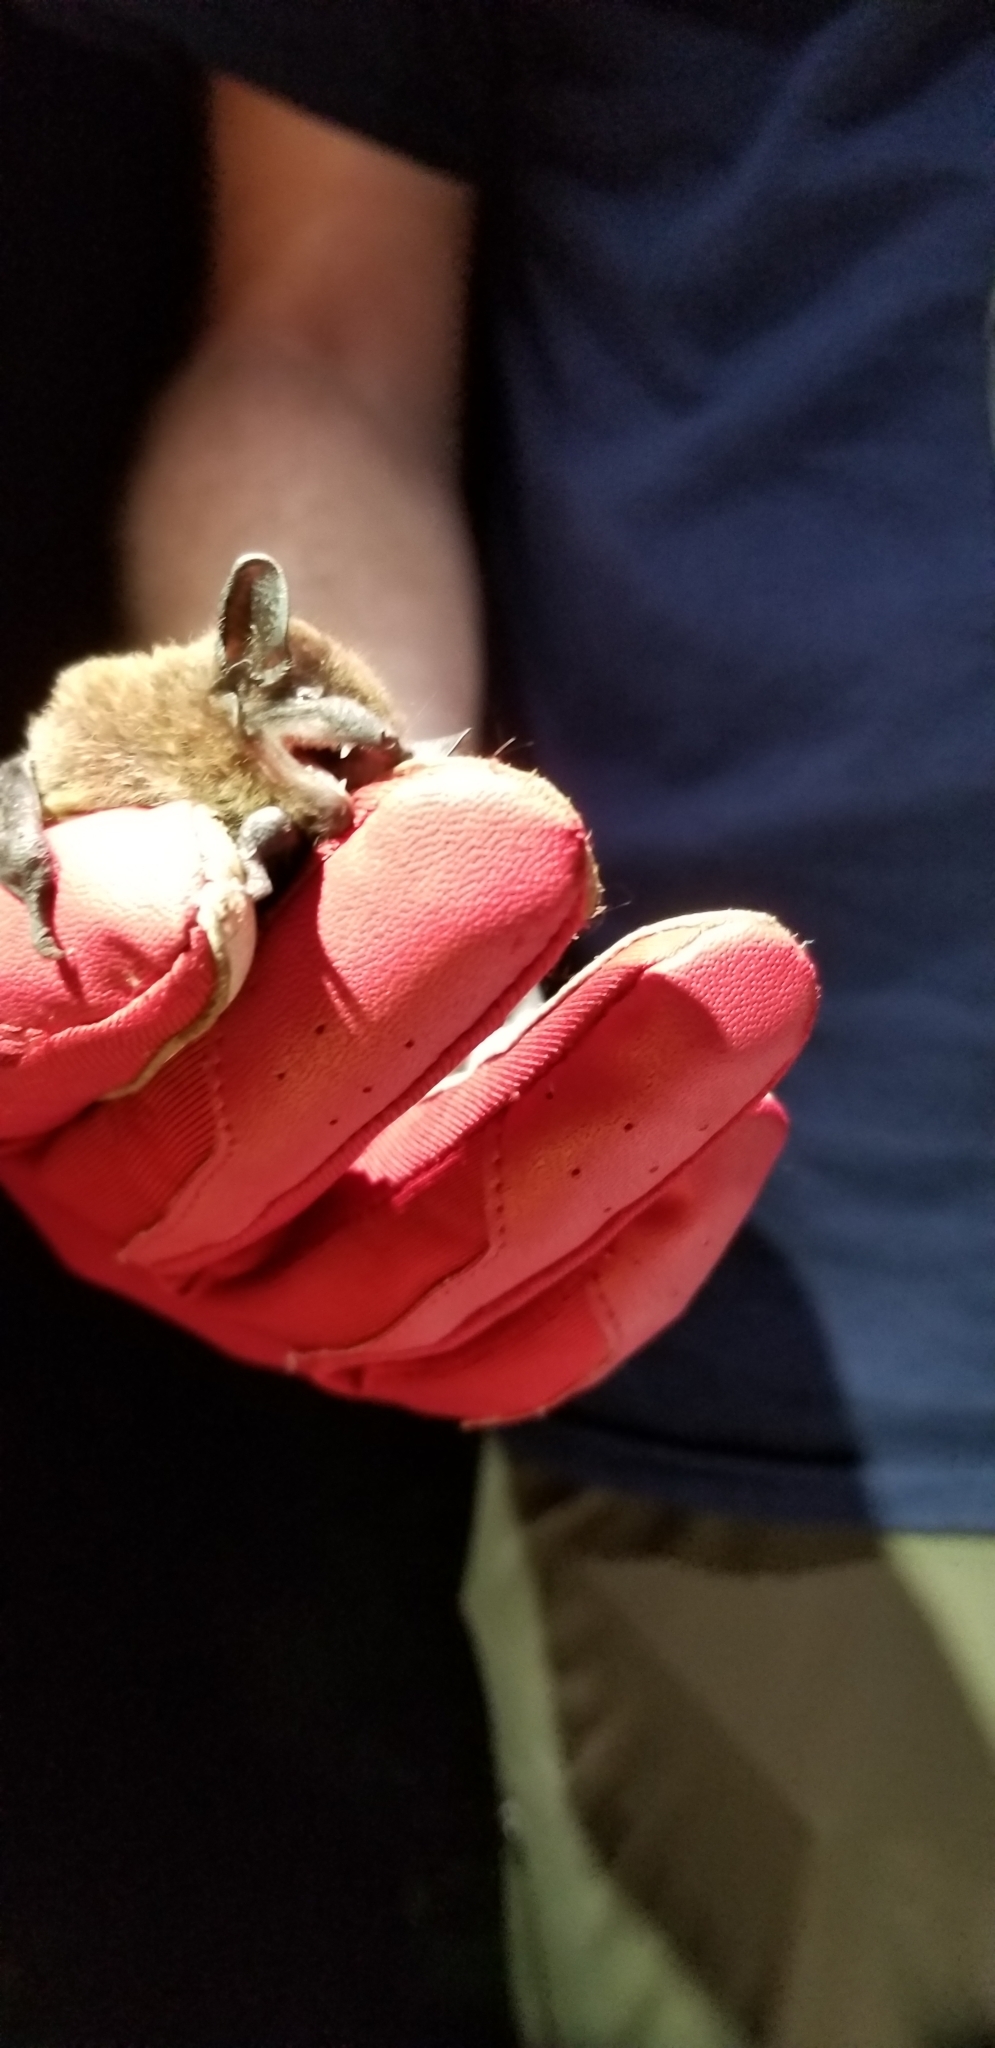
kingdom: Animalia
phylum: Chordata
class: Mammalia
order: Chiroptera
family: Vespertilionidae
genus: Nycticeius
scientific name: Nycticeius humeralis
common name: Evening bat
